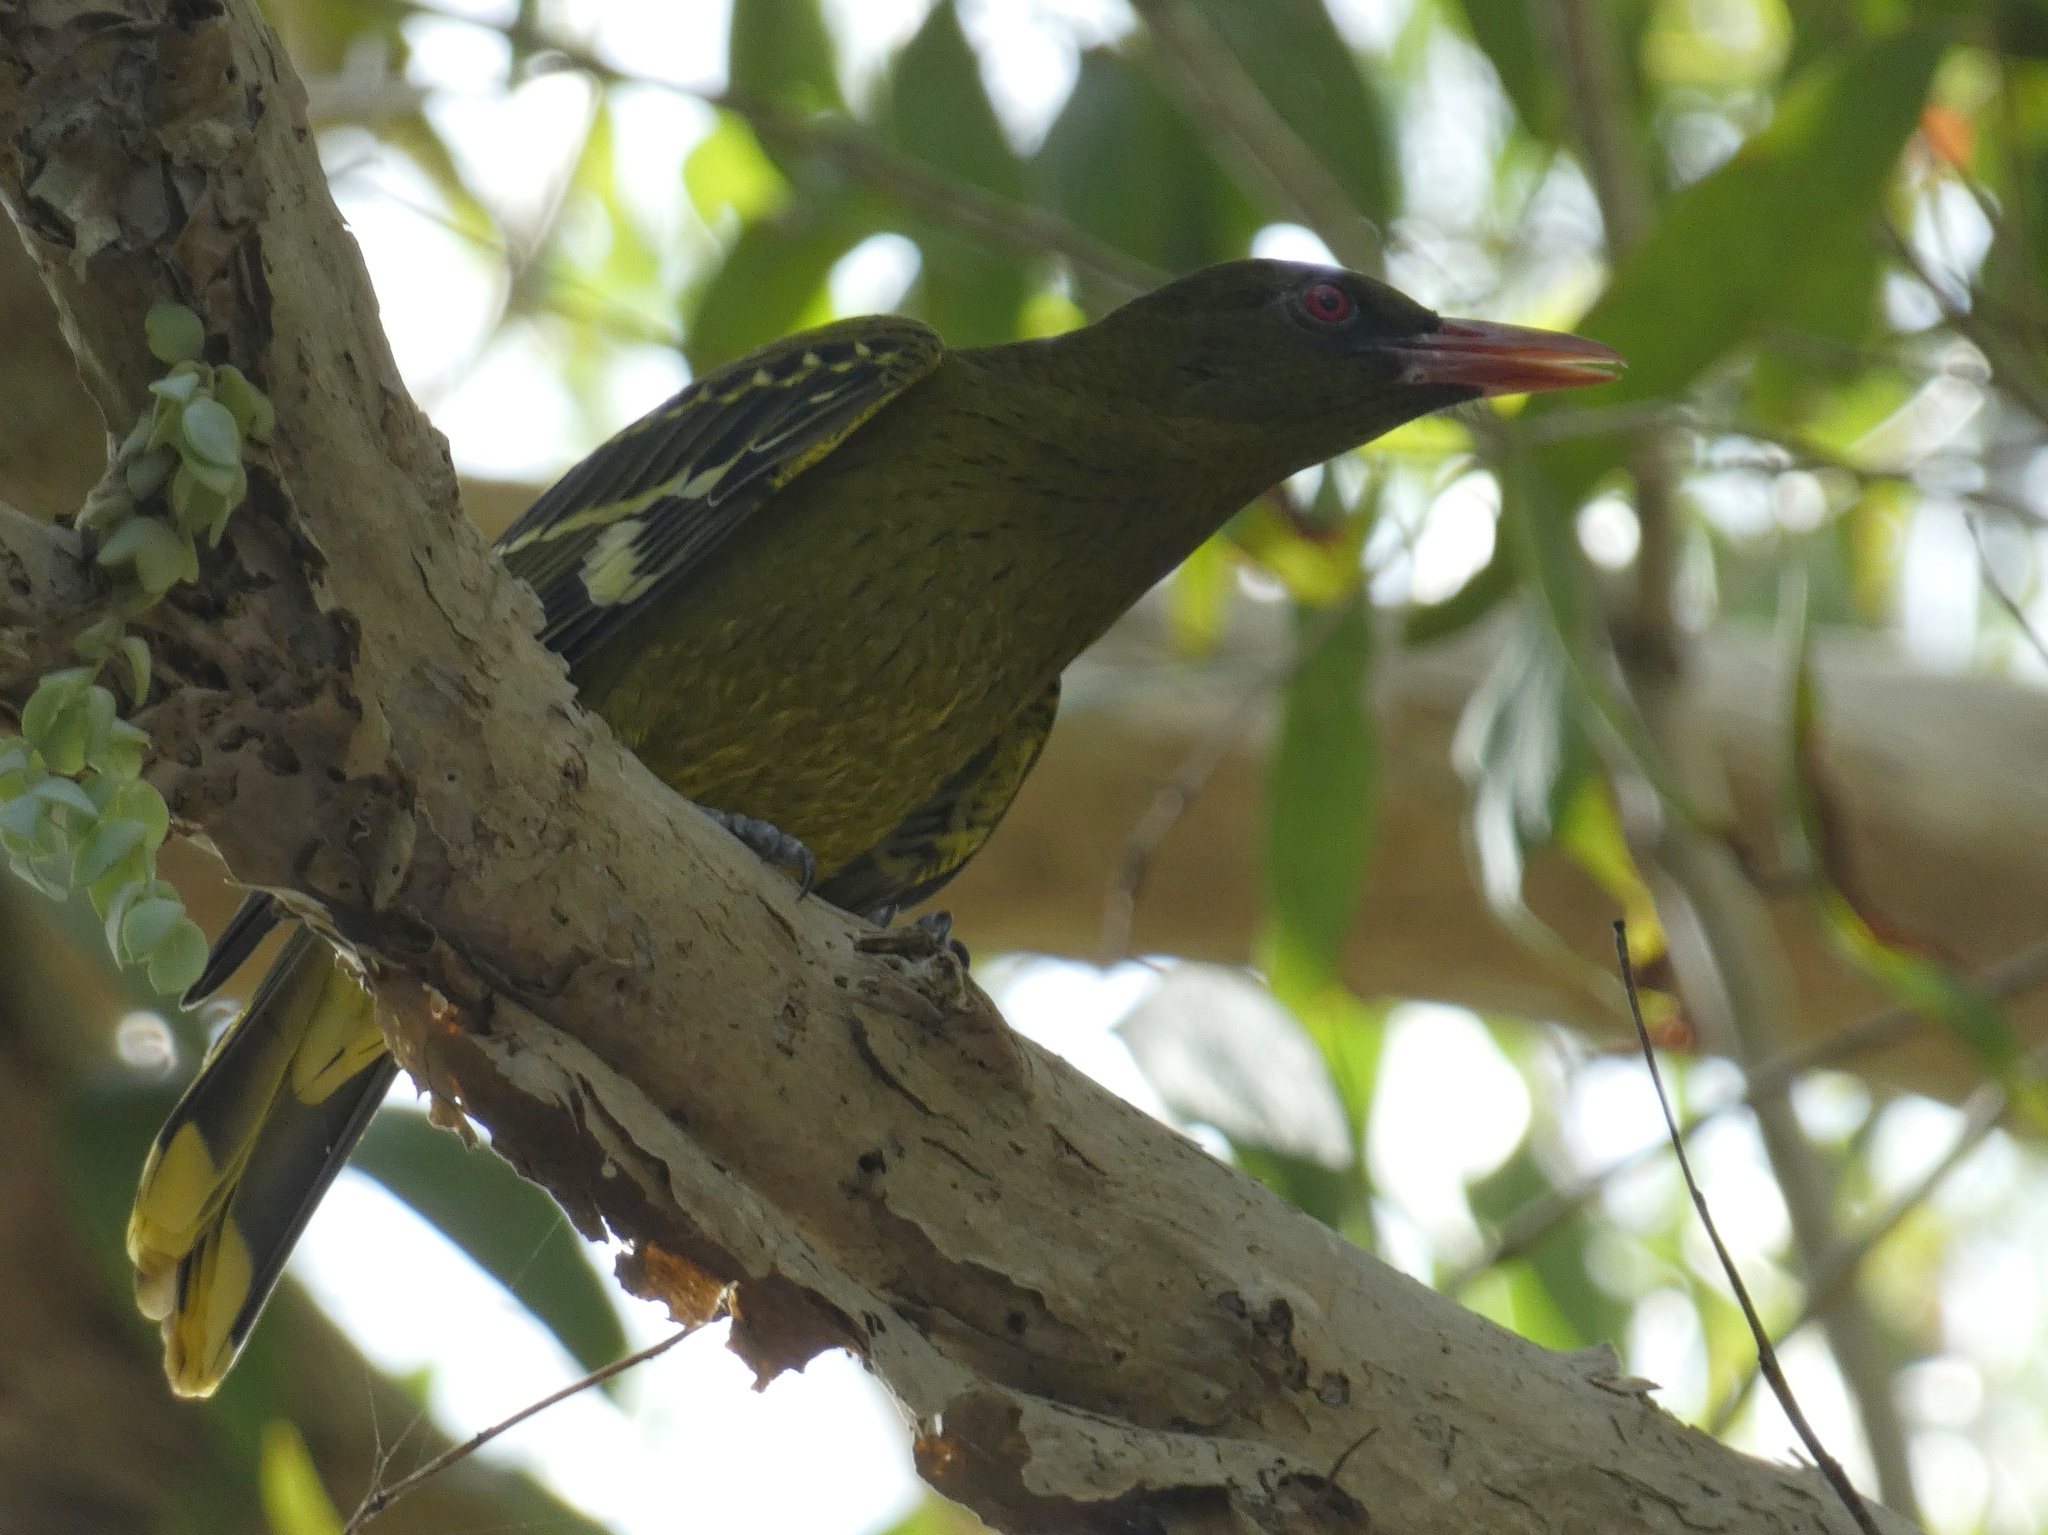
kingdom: Animalia
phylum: Chordata
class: Aves
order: Passeriformes
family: Oriolidae
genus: Oriolus
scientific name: Oriolus flavocinctus
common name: Green oriole
